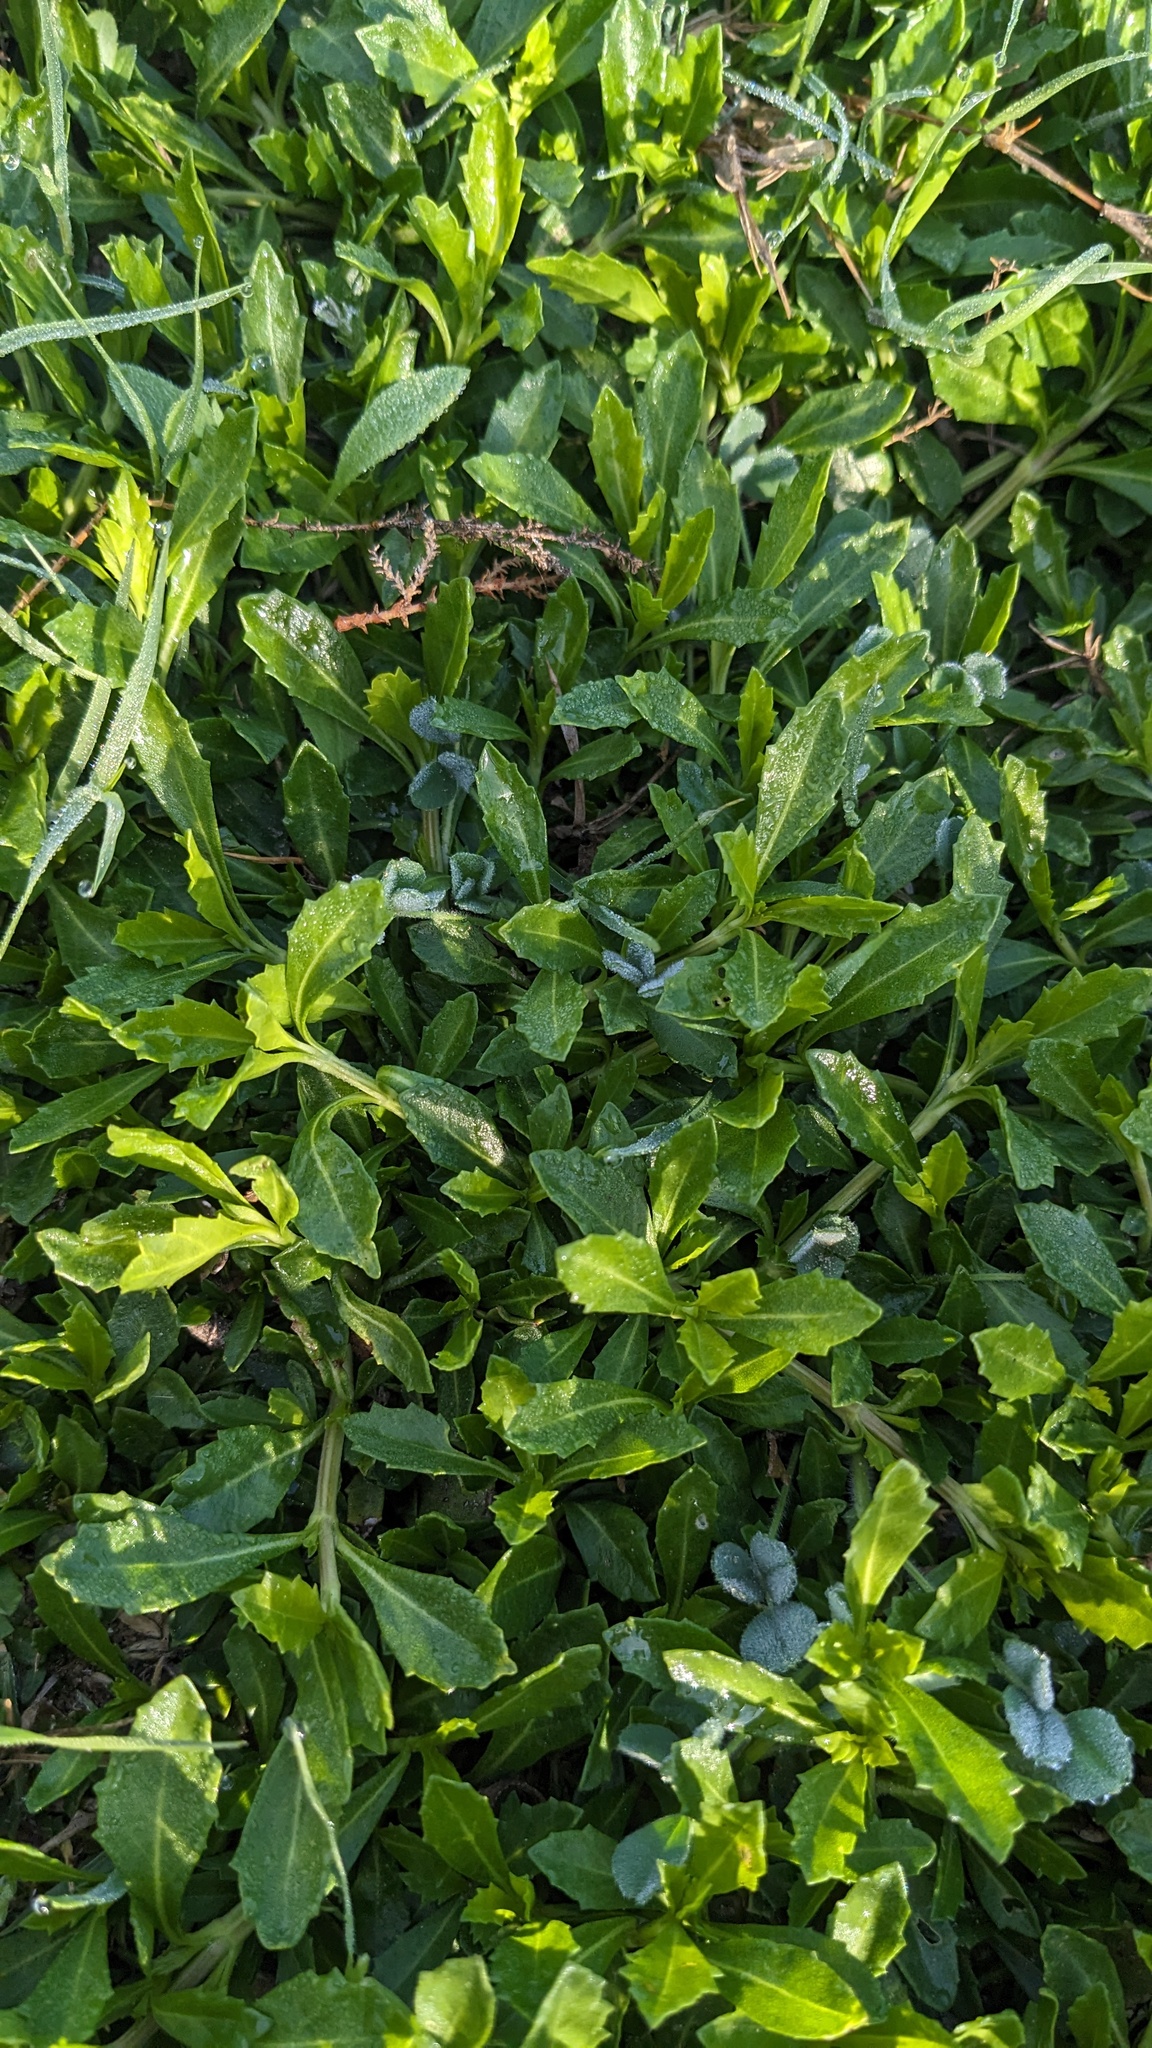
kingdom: Plantae
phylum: Tracheophyta
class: Magnoliopsida
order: Lamiales
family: Verbenaceae
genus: Phyla
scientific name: Phyla nodiflora
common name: Frogfruit
